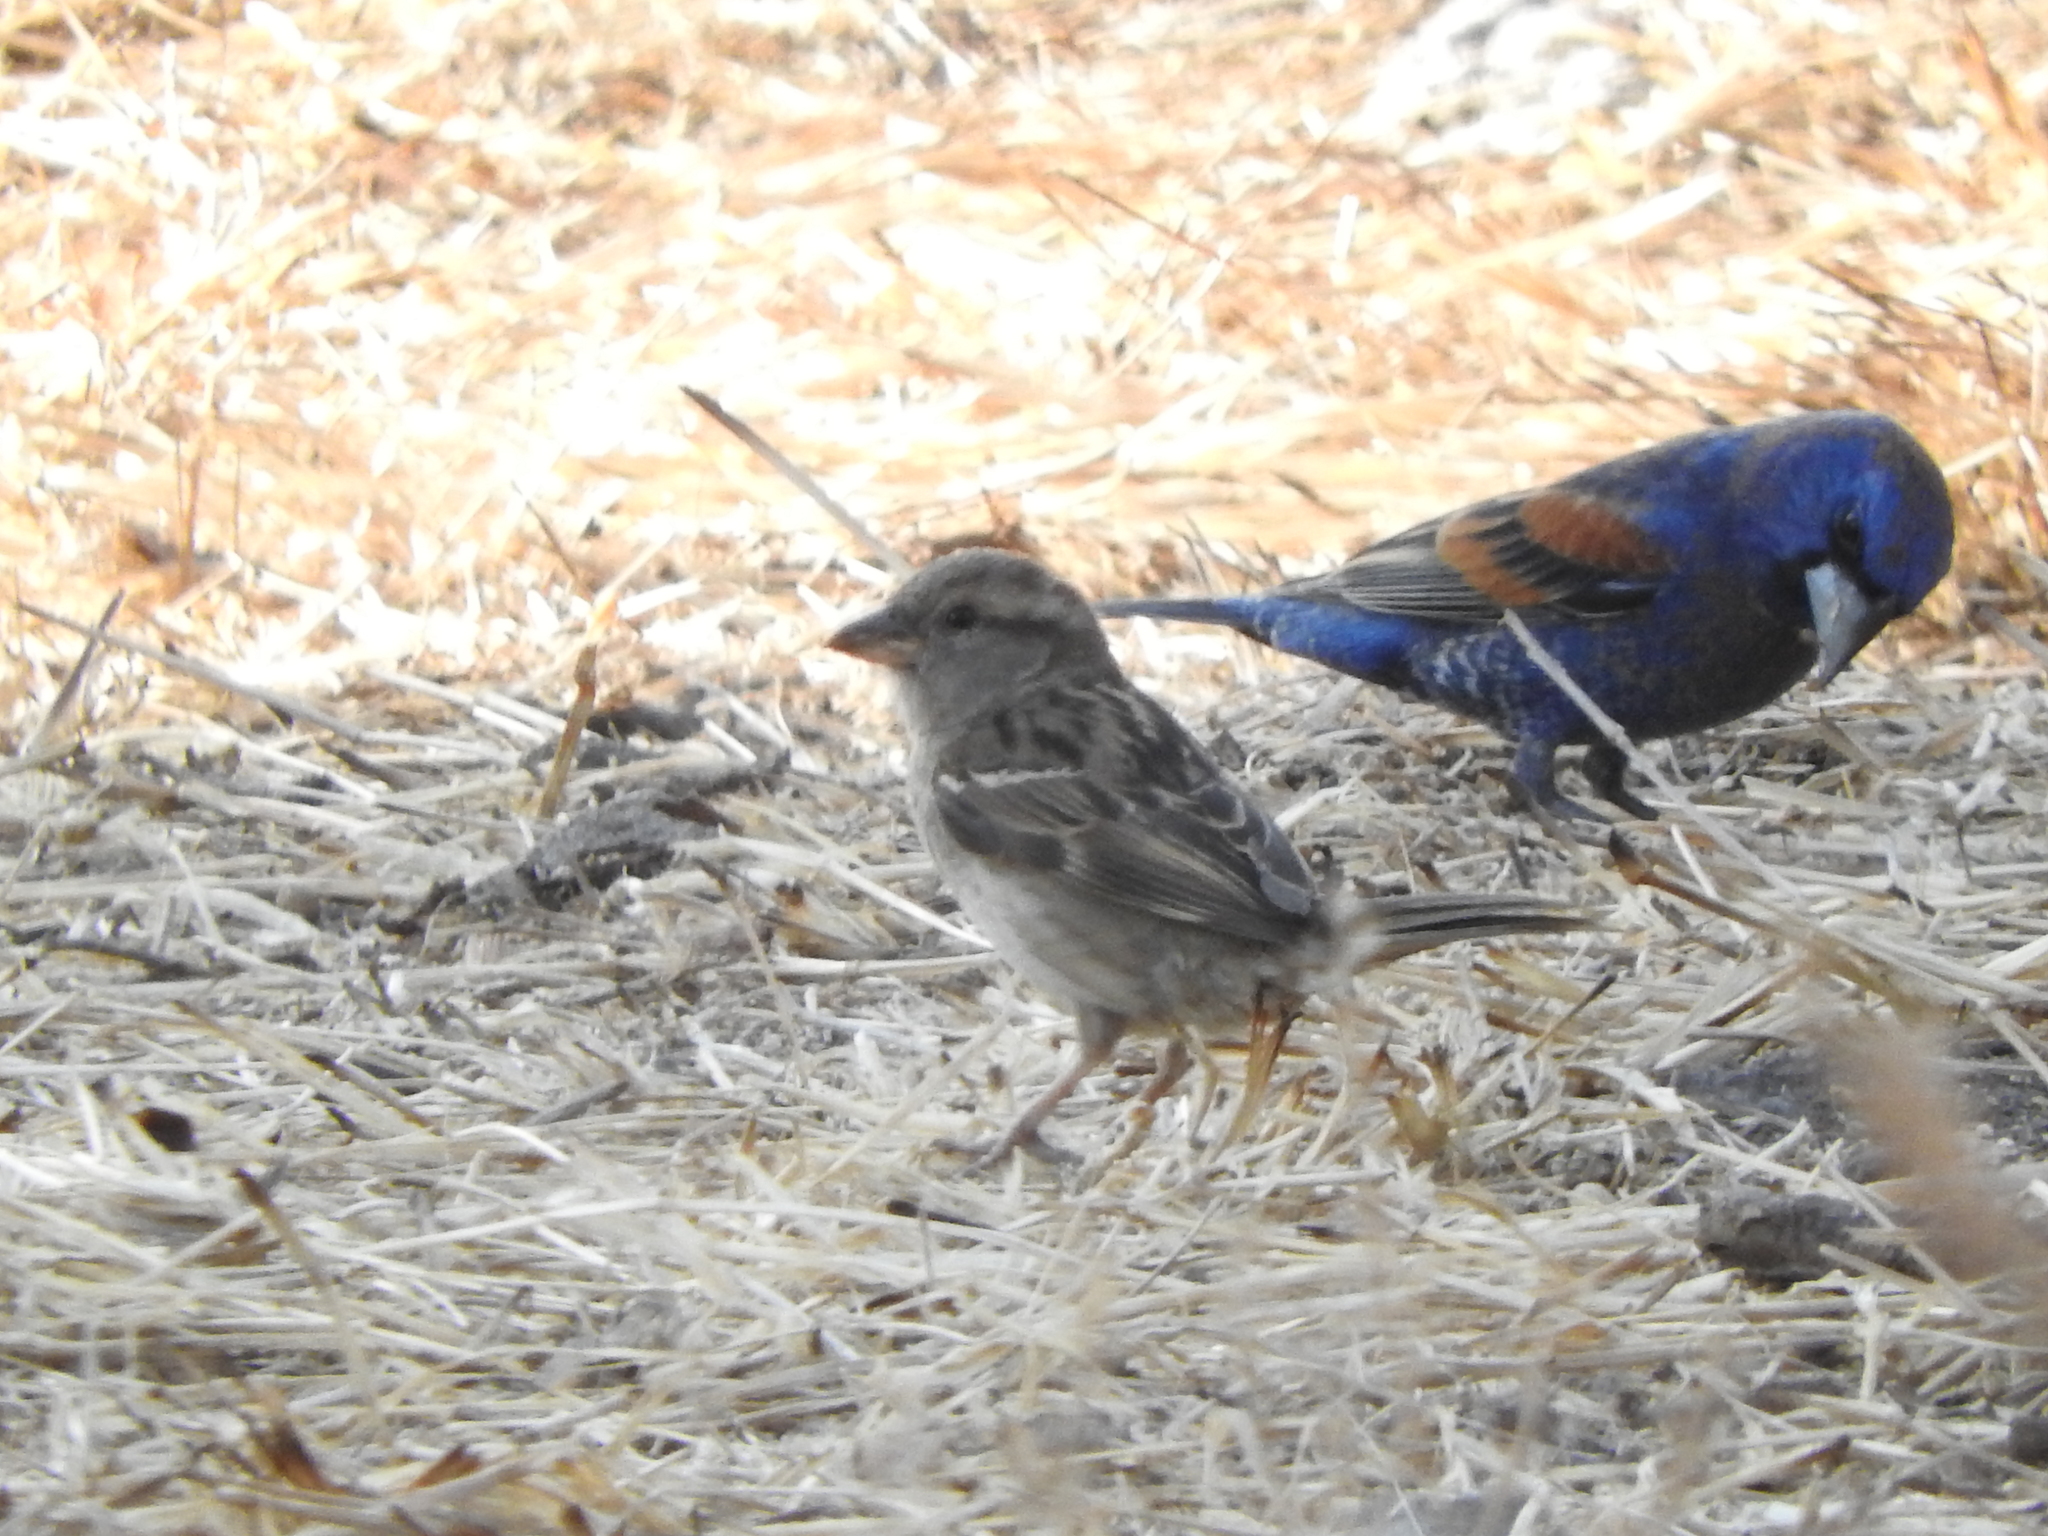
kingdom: Animalia
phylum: Chordata
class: Aves
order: Passeriformes
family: Cardinalidae
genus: Passerina
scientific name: Passerina caerulea
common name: Blue grosbeak
